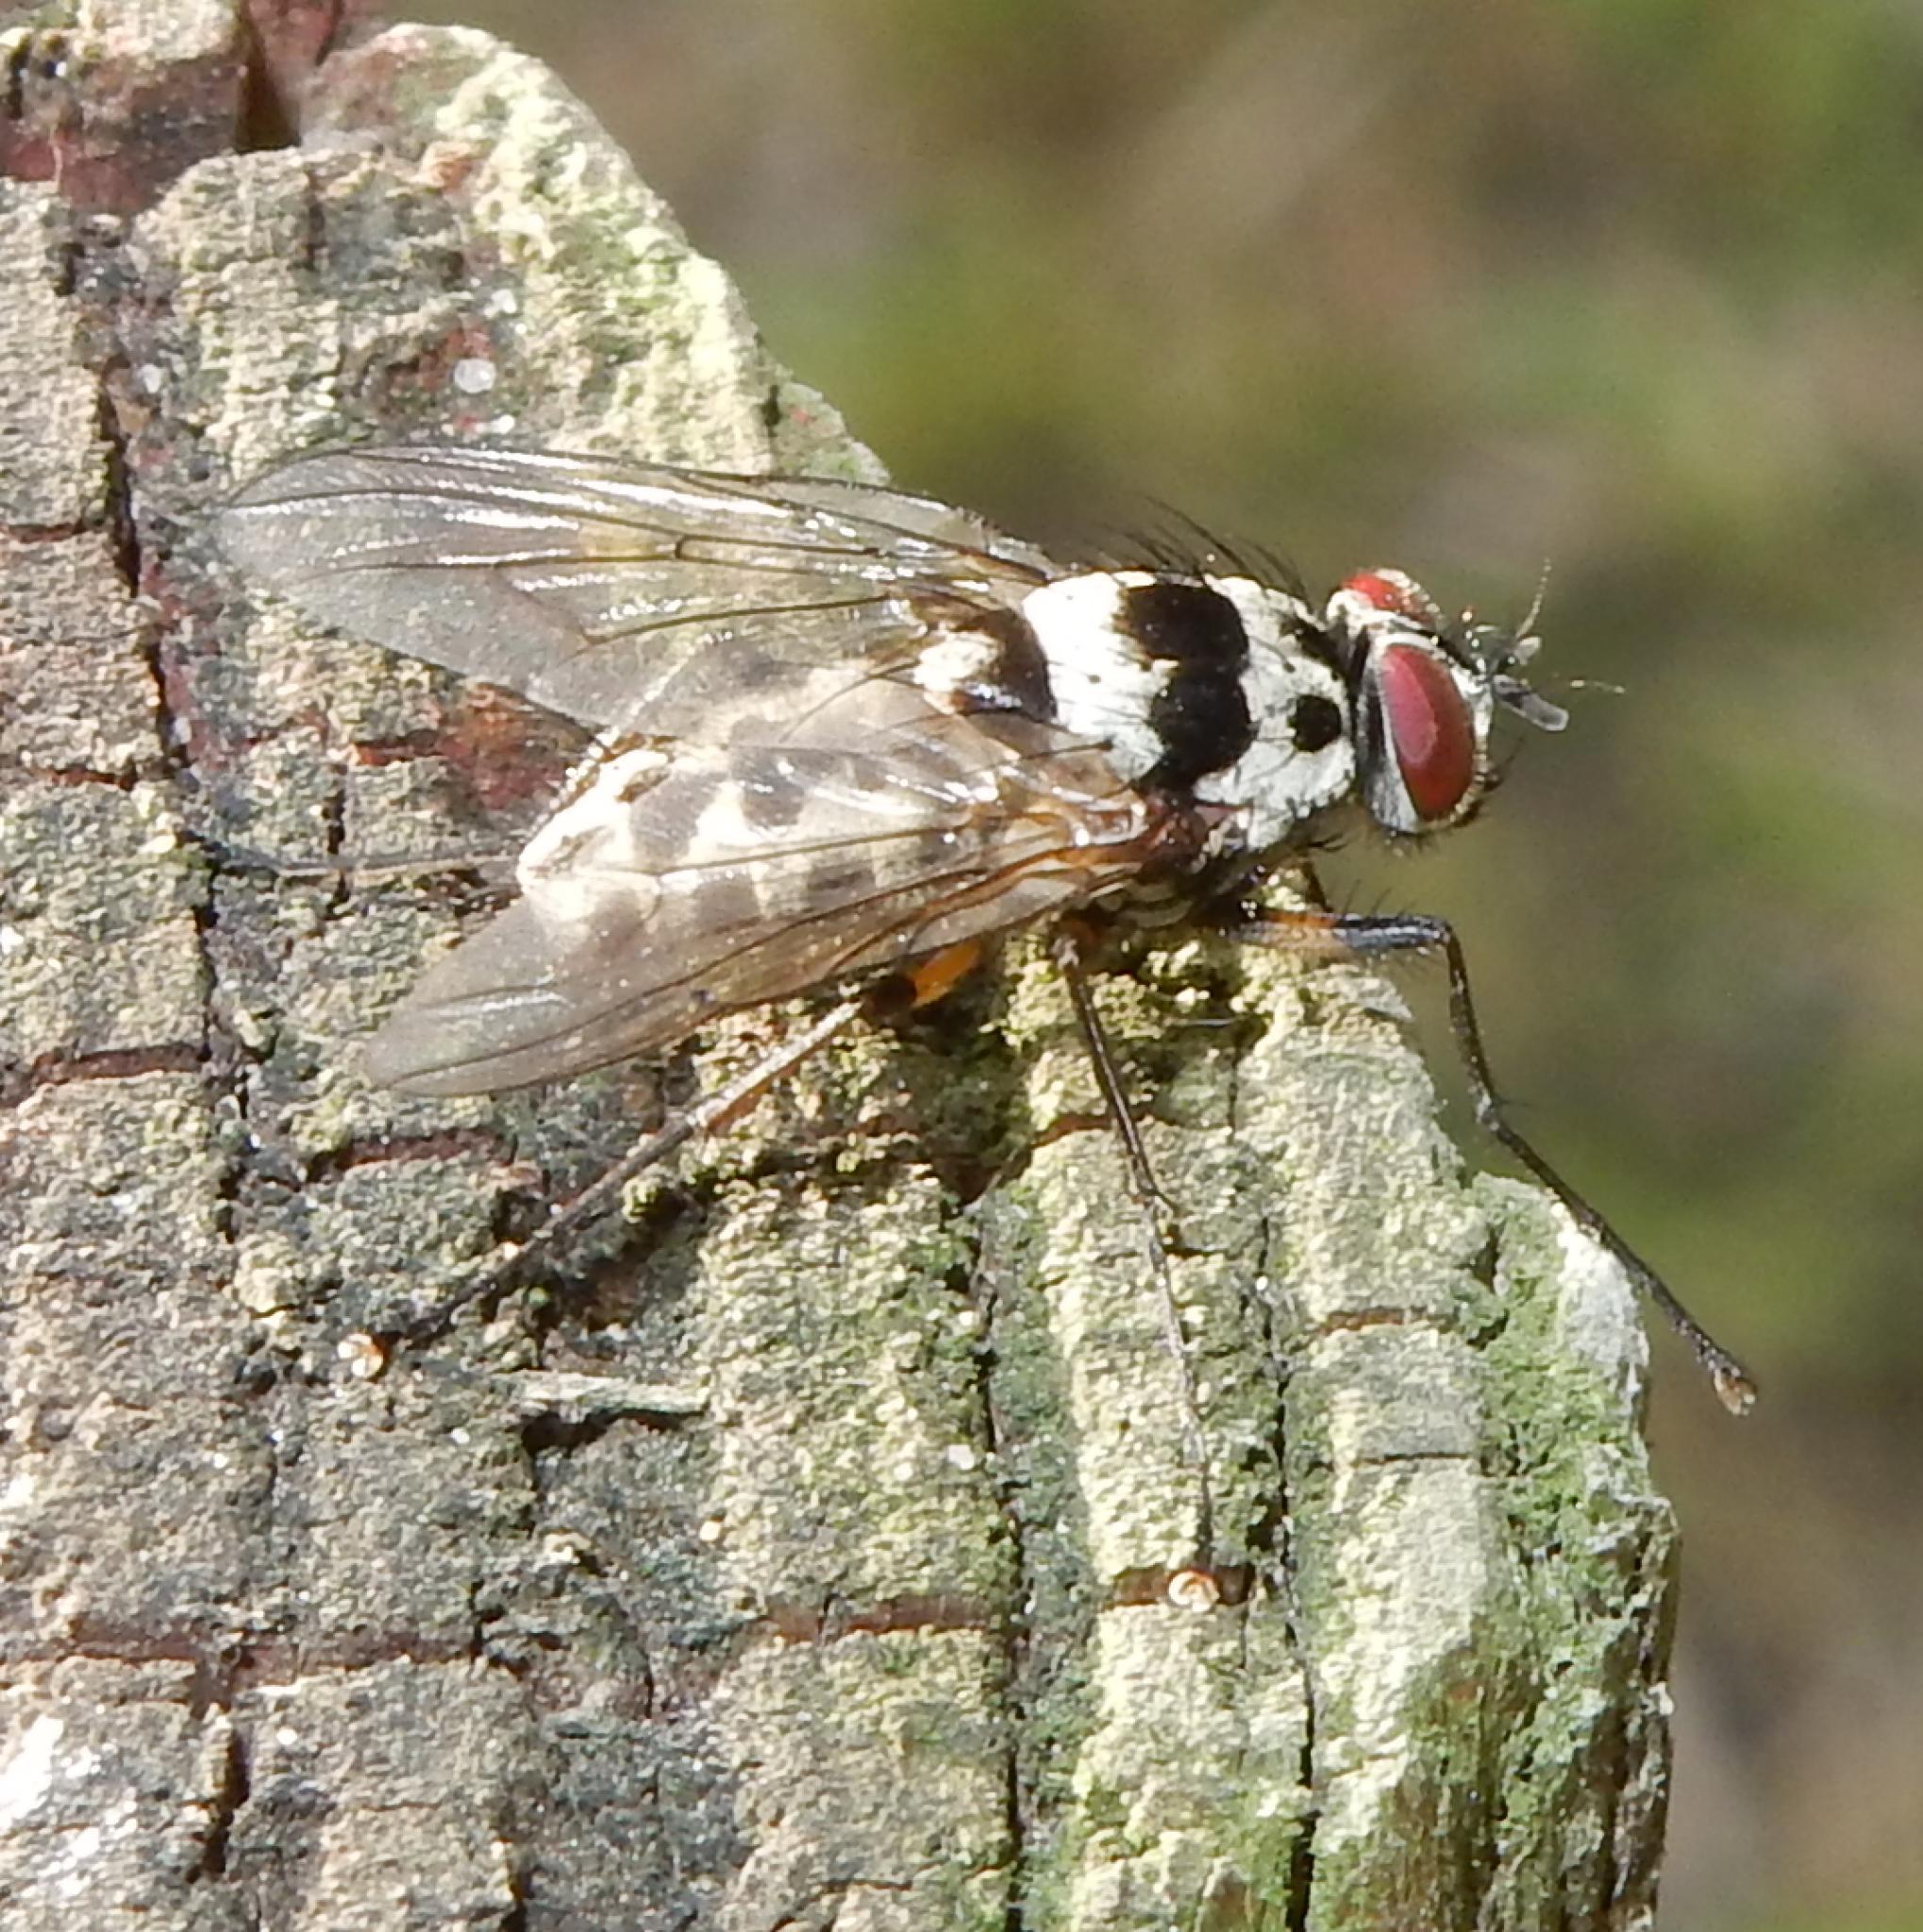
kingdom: Animalia
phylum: Arthropoda
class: Insecta
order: Diptera
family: Muscidae
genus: Phaonia
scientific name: Phaonia annulipes
